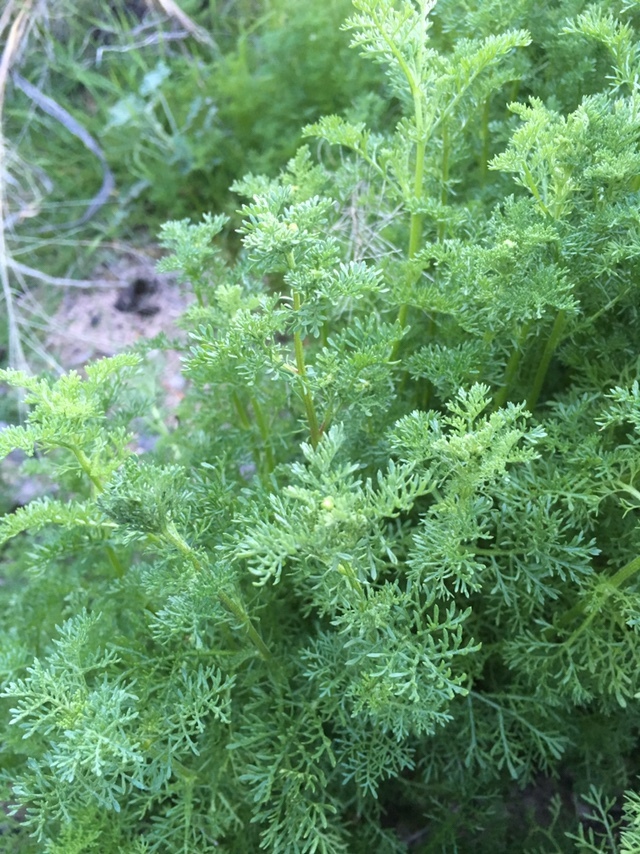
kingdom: Plantae
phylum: Tracheophyta
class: Magnoliopsida
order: Asterales
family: Asteraceae
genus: Oncosiphon
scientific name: Oncosiphon pilulifer
